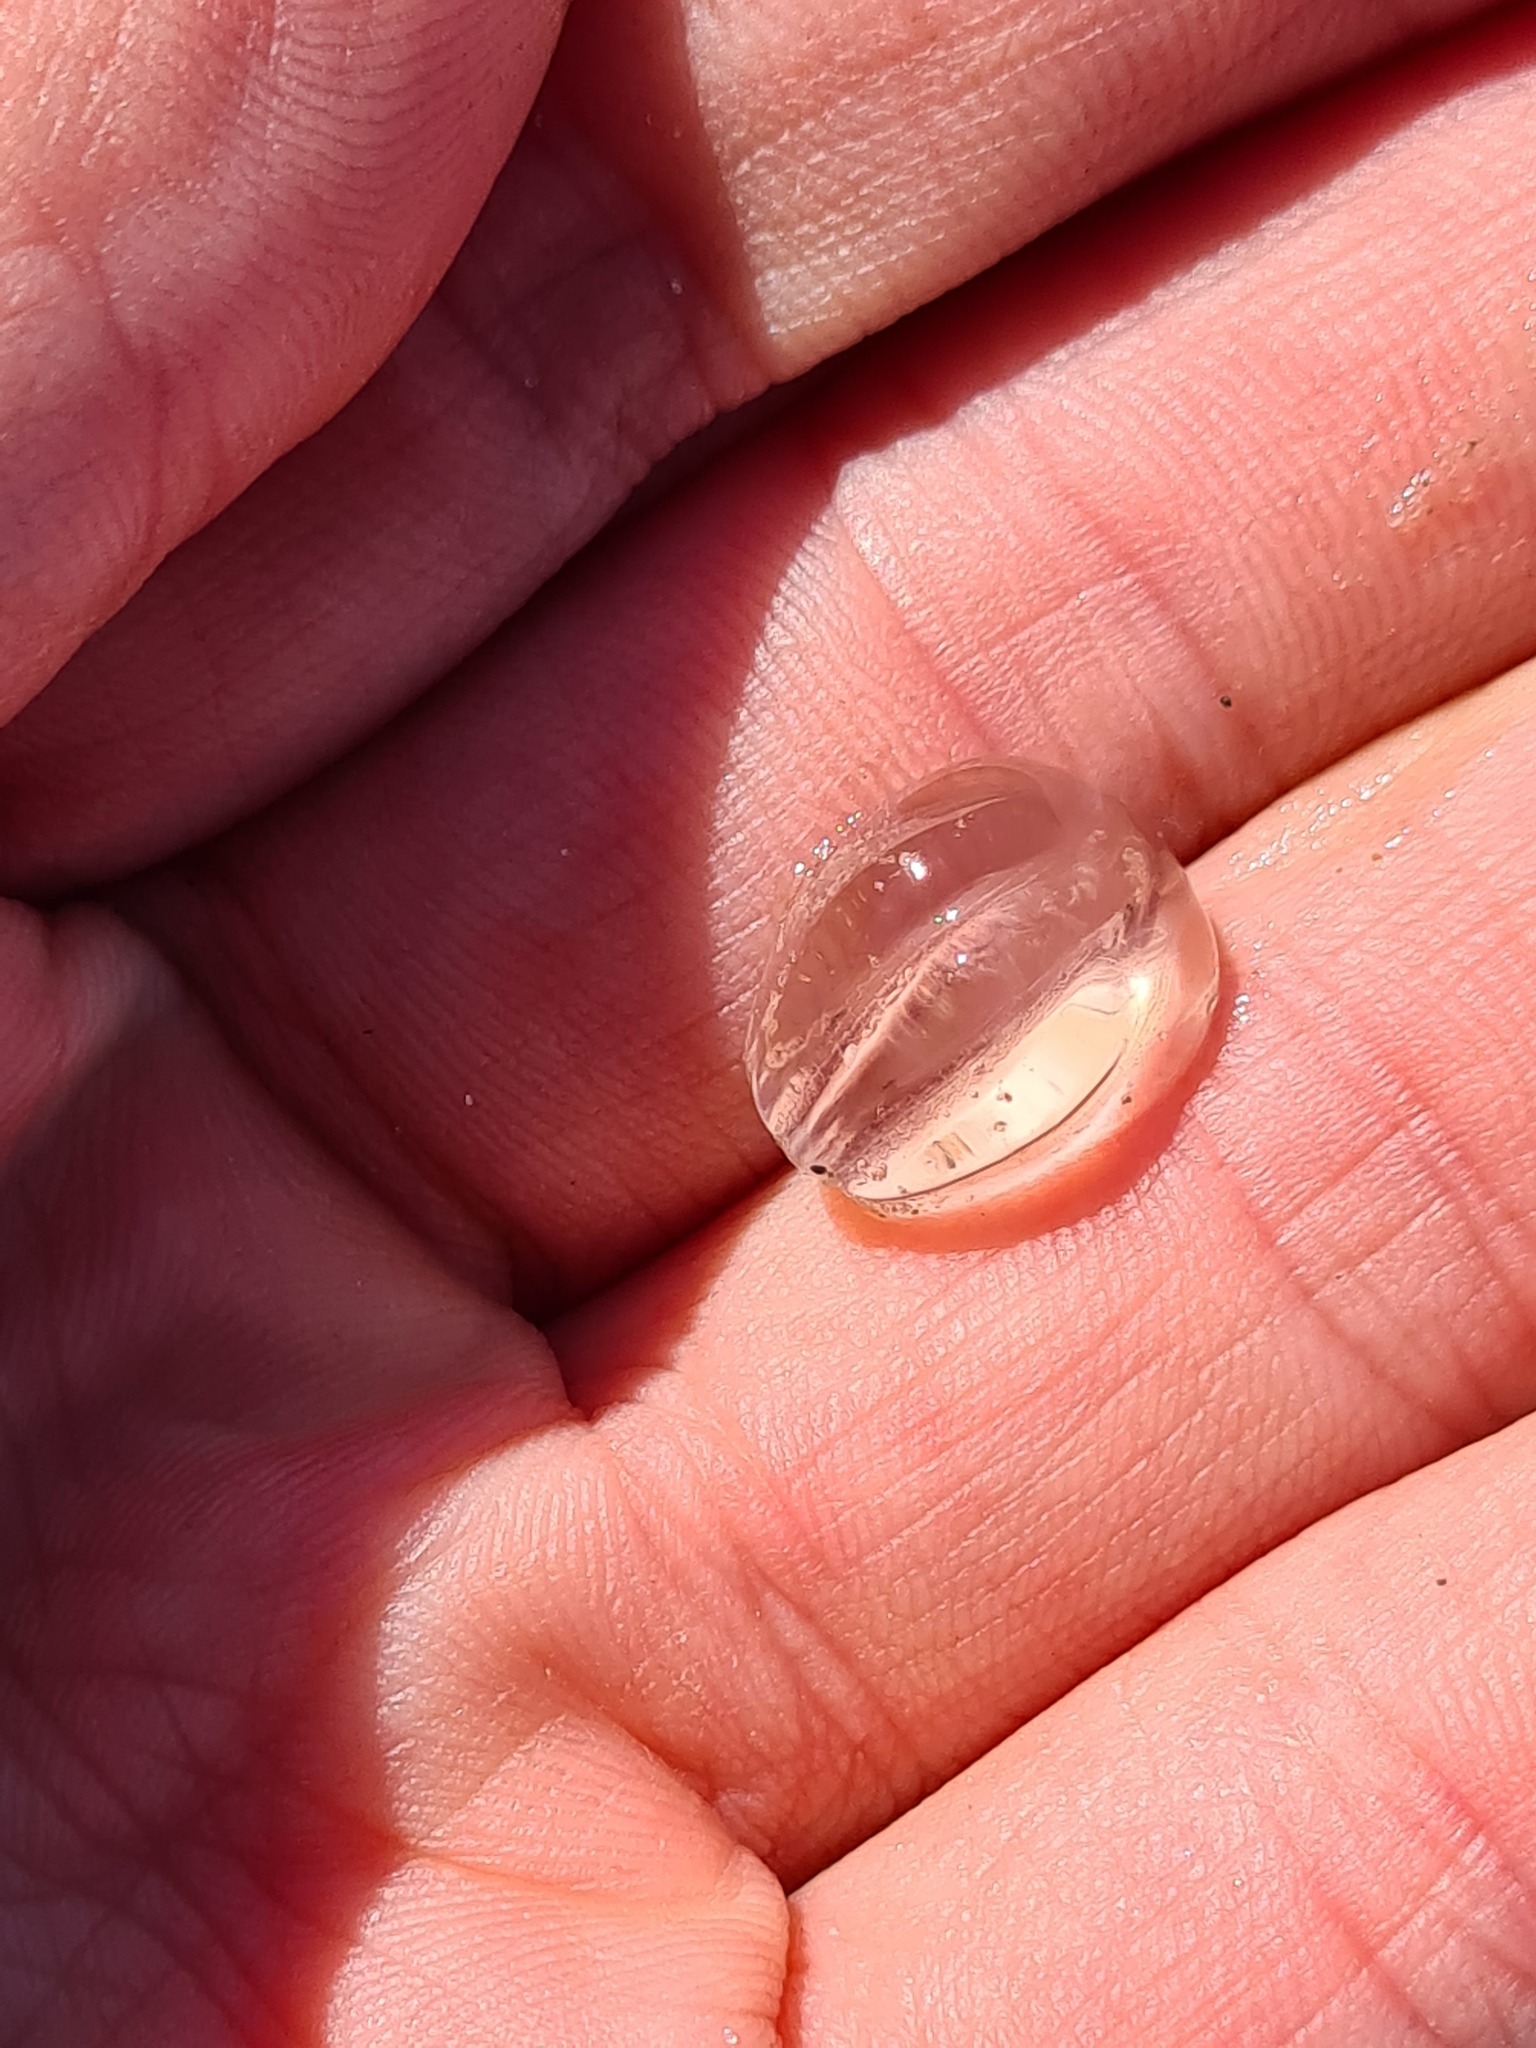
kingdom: Animalia
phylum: Ctenophora
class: Tentaculata
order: Cydippida
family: Pleurobrachiidae
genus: Pleurobrachia
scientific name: Pleurobrachia pileus
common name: Sea gooseberry
